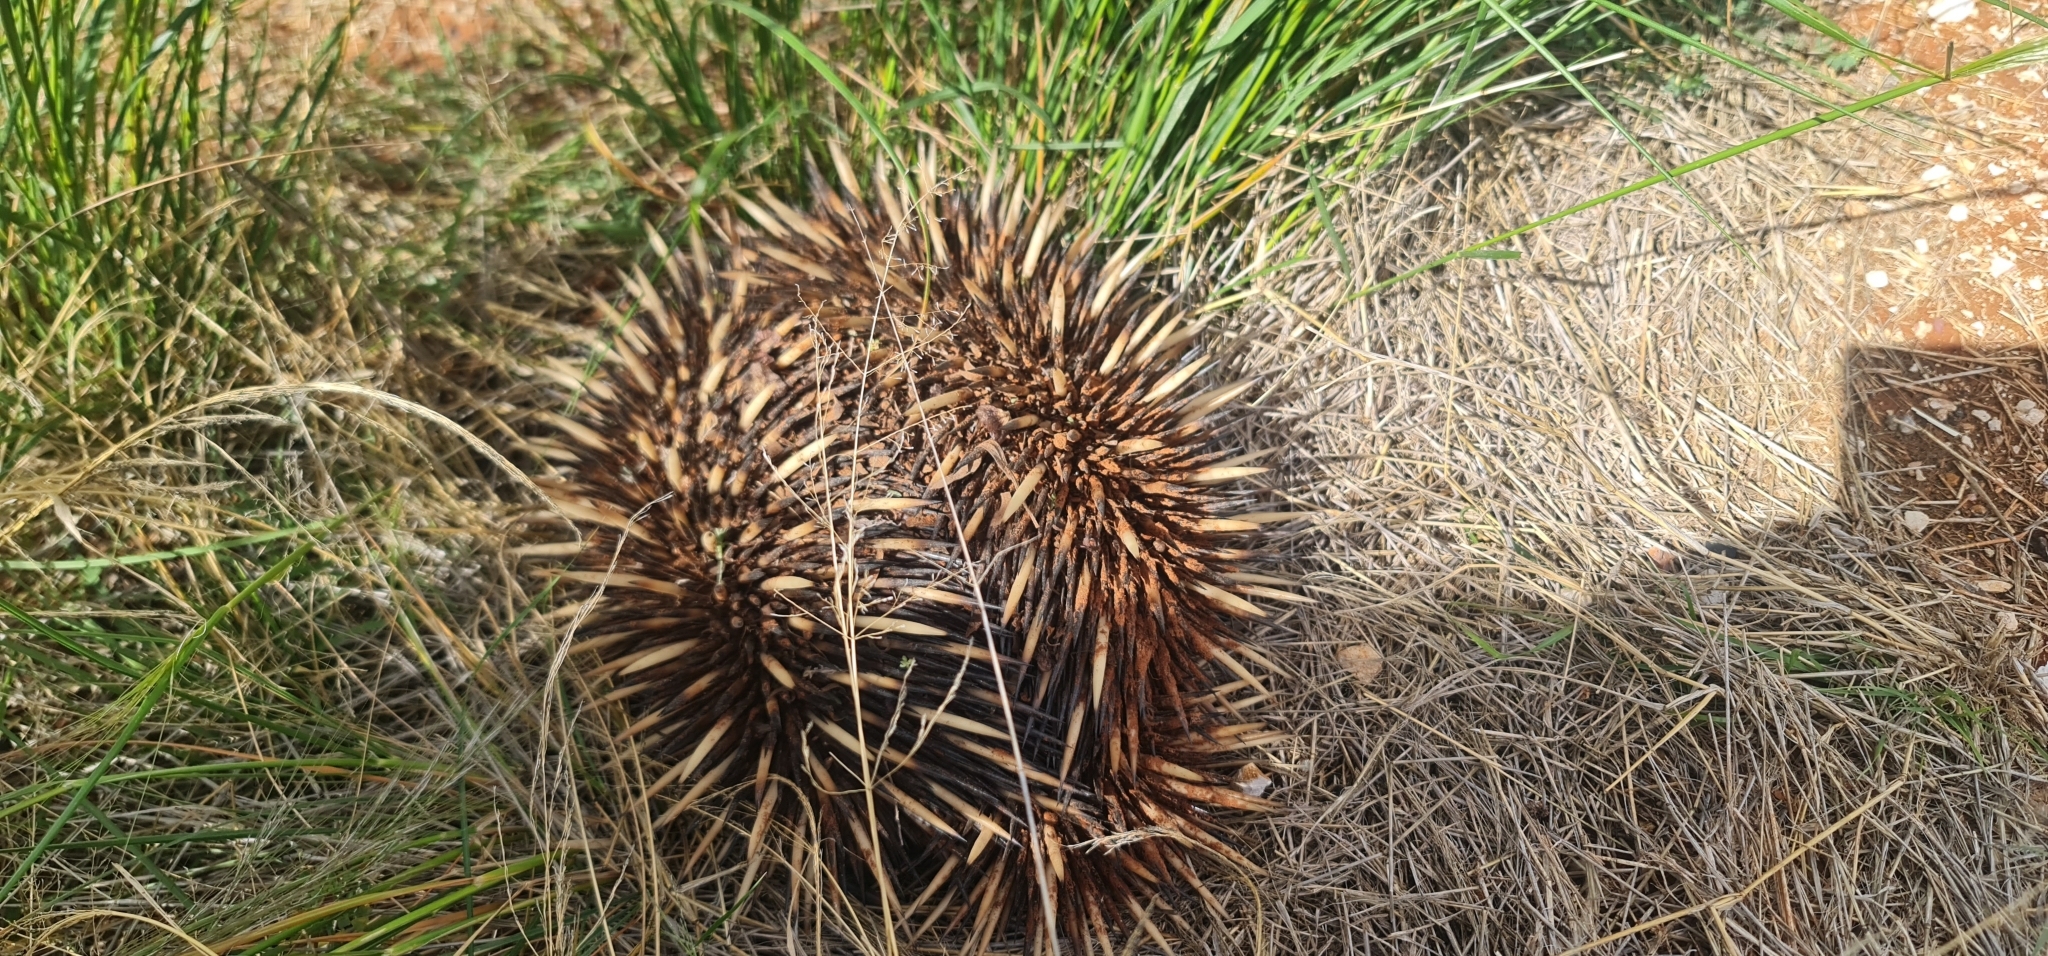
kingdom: Animalia
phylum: Chordata
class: Mammalia
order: Monotremata
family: Tachyglossidae
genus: Tachyglossus
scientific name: Tachyglossus aculeatus
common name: Short-beaked echidna
